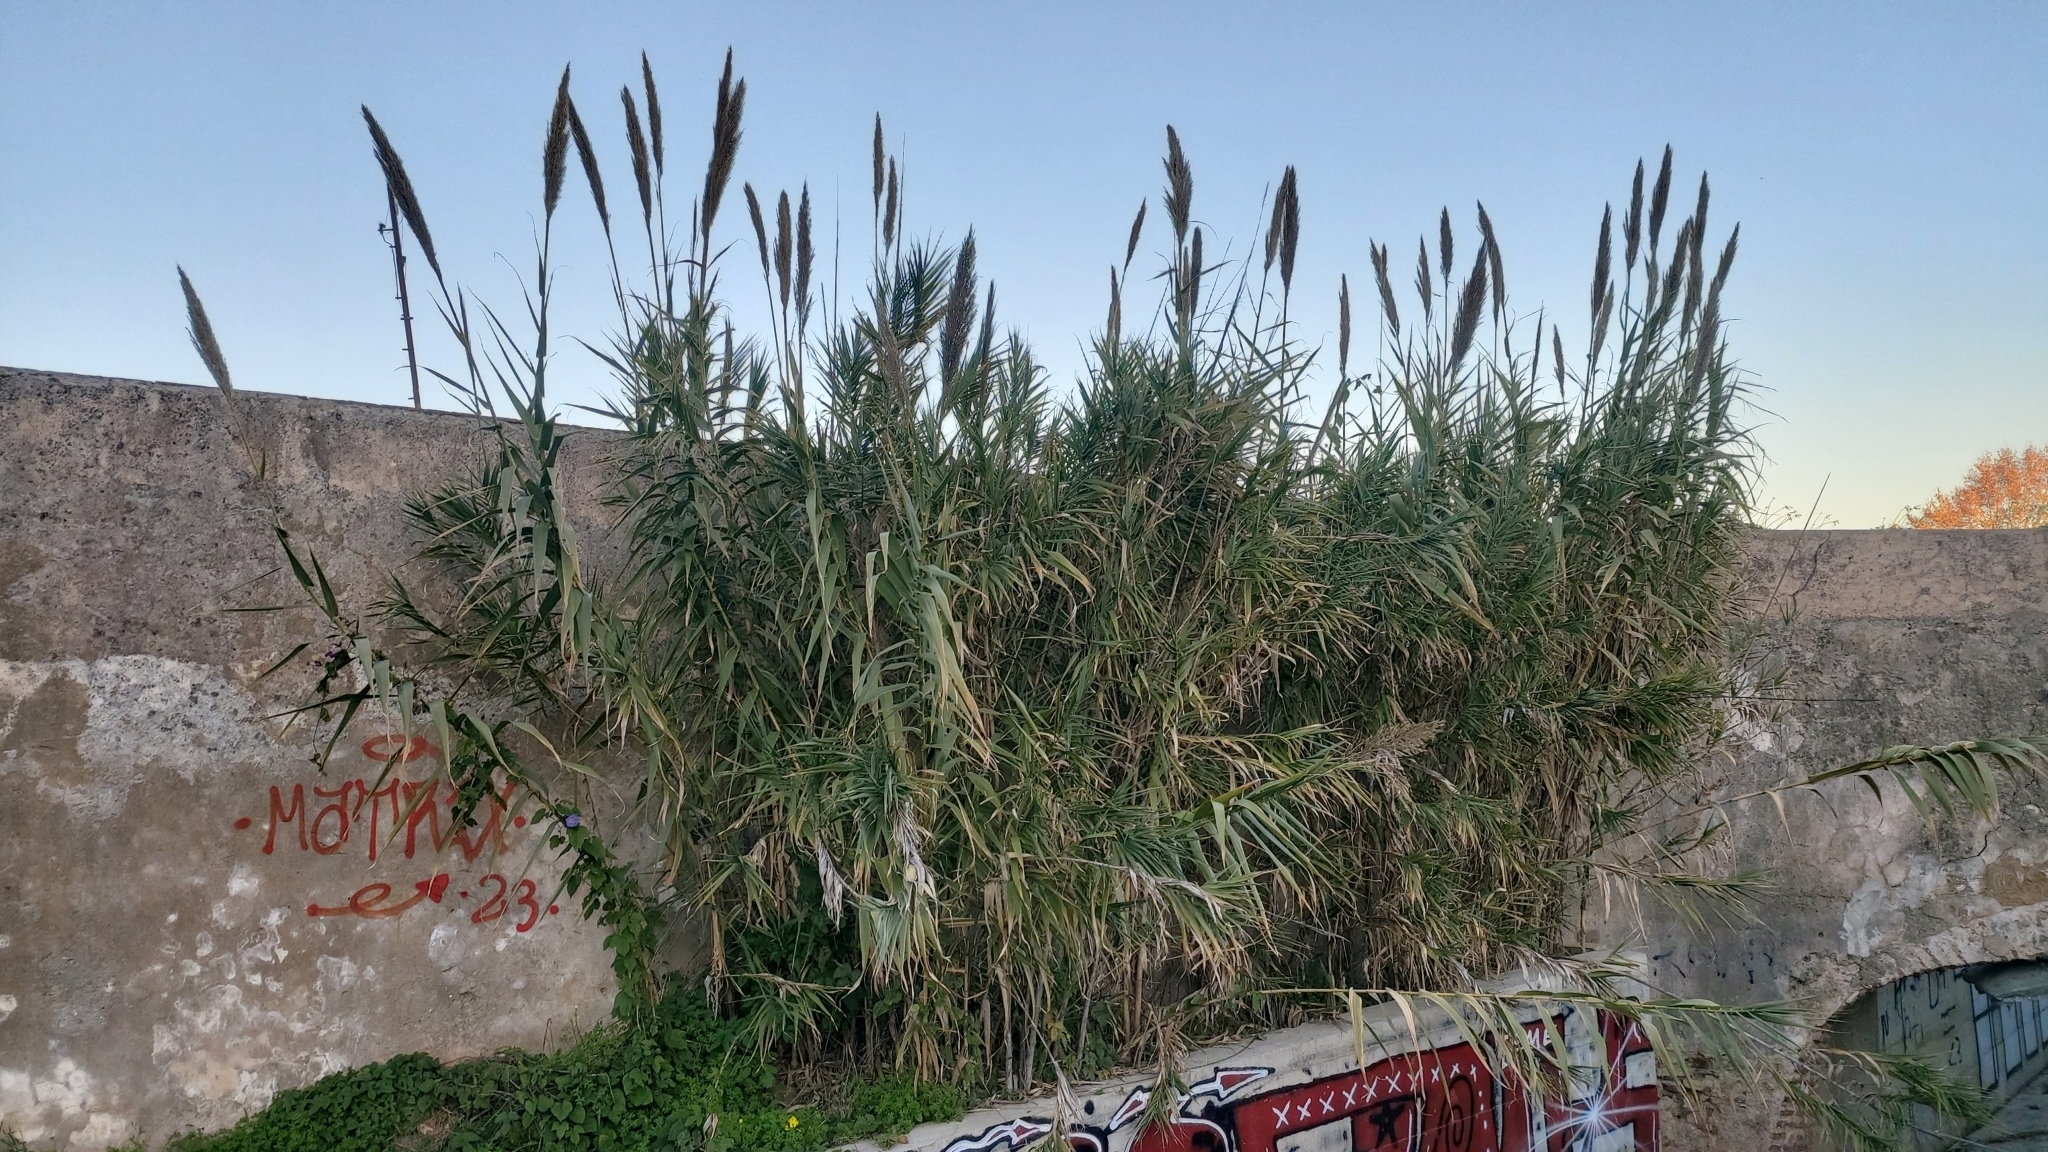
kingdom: Plantae
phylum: Tracheophyta
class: Liliopsida
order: Poales
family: Poaceae
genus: Arundo
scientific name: Arundo donax
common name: Giant reed
